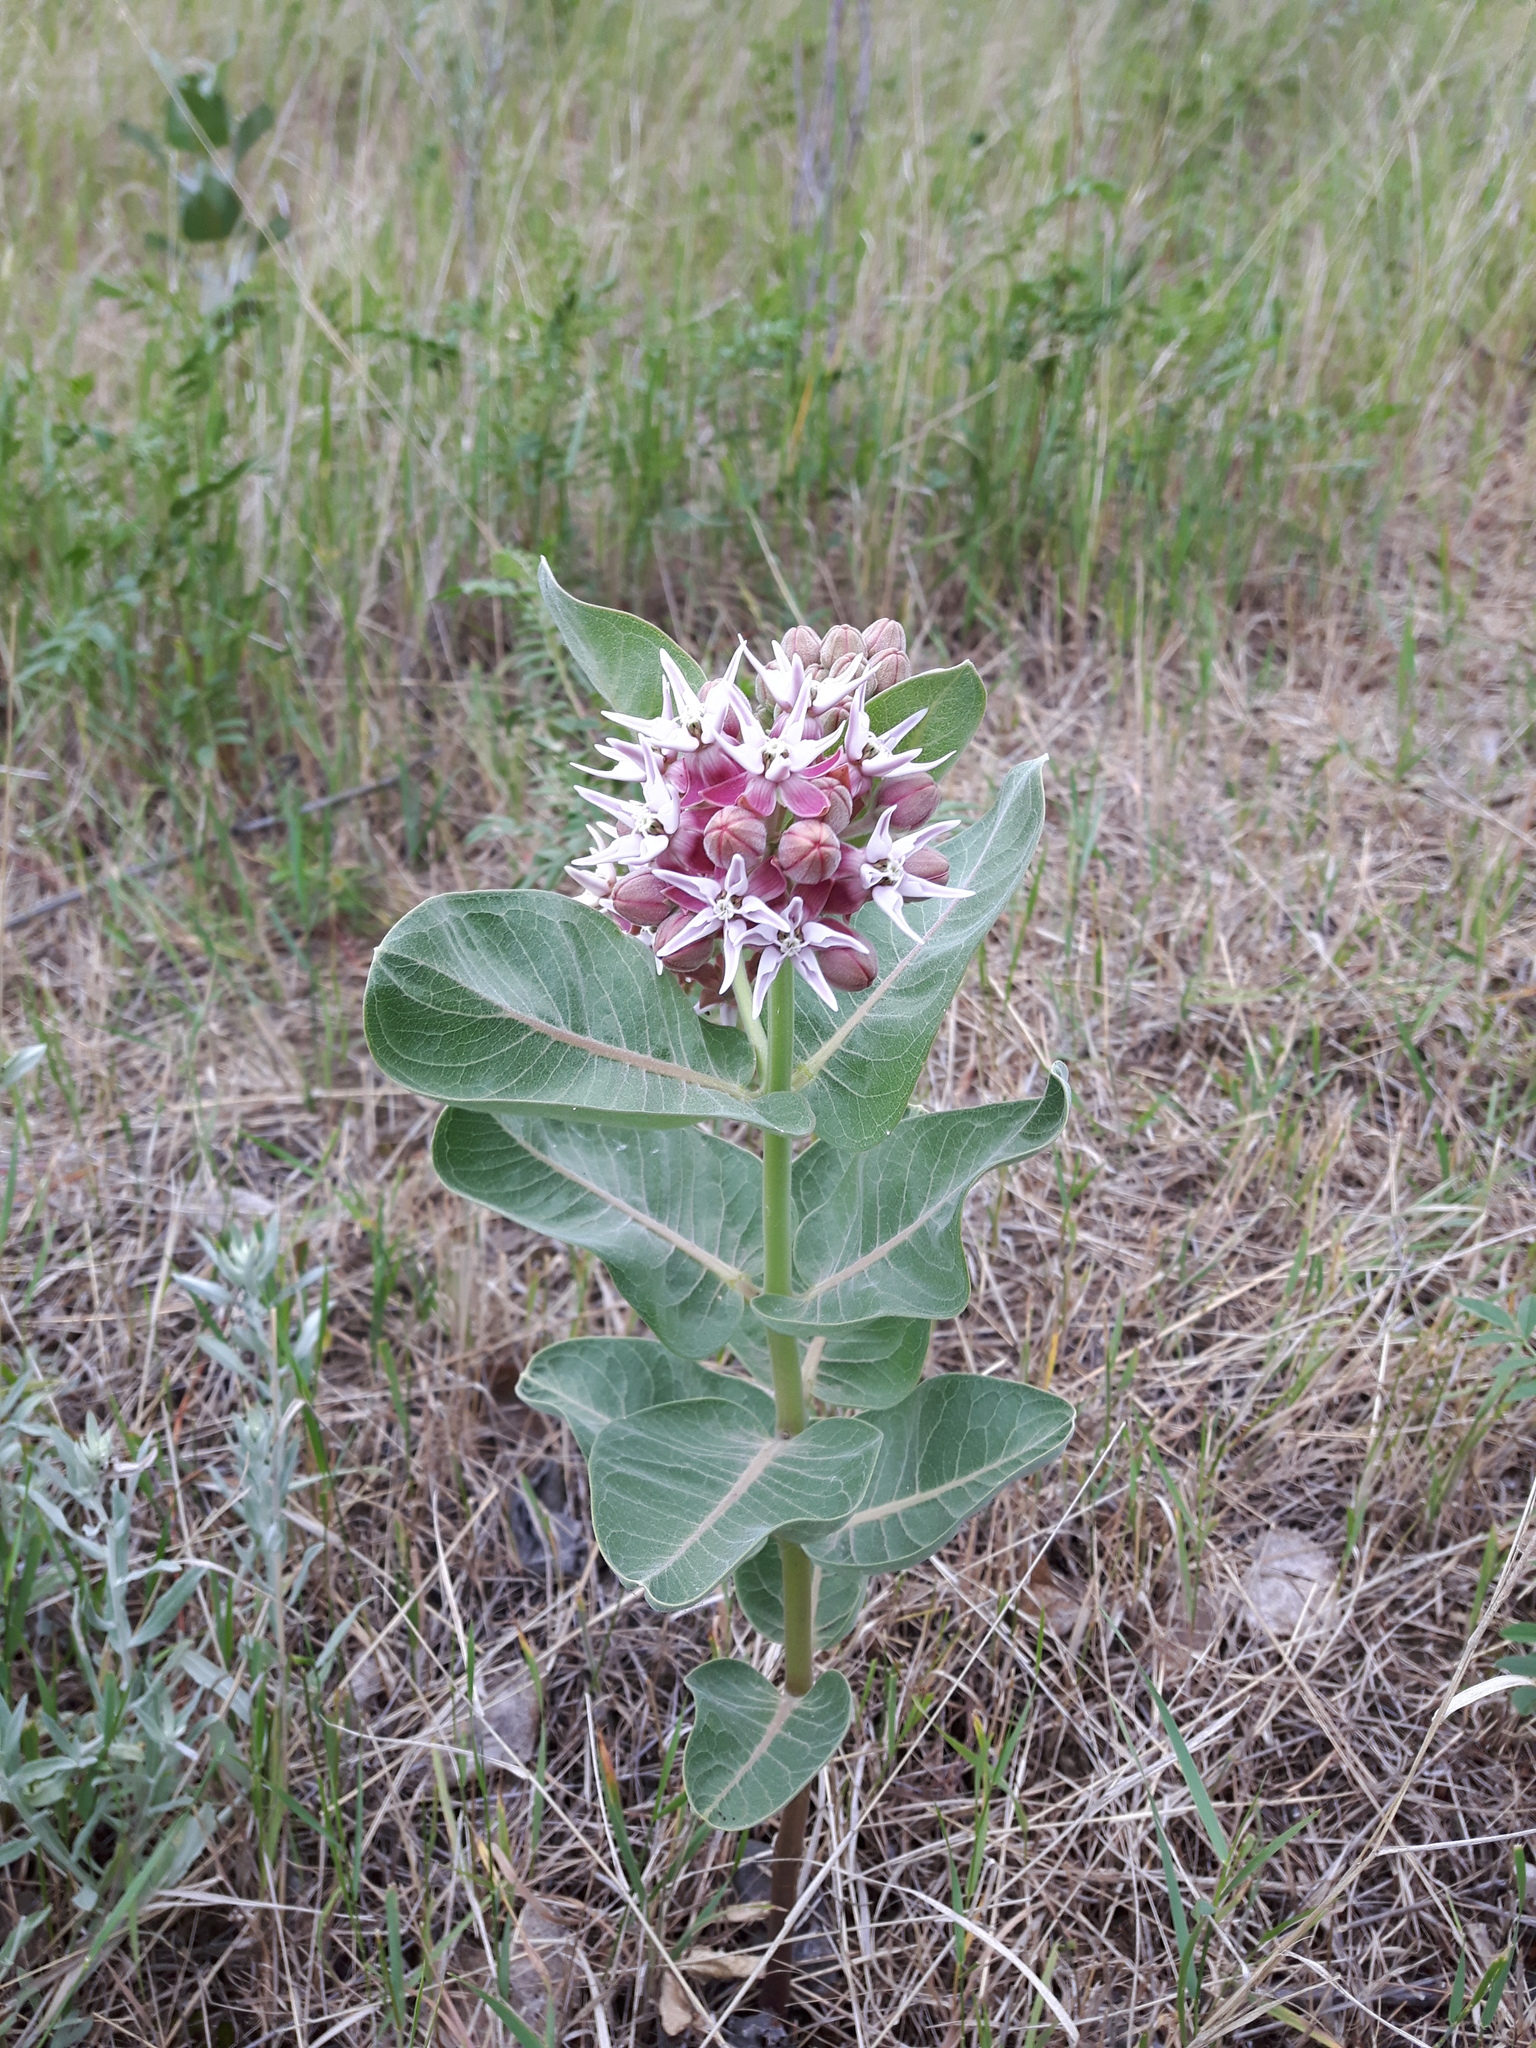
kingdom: Plantae
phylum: Tracheophyta
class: Magnoliopsida
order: Gentianales
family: Apocynaceae
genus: Asclepias
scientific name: Asclepias speciosa
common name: Showy milkweed
